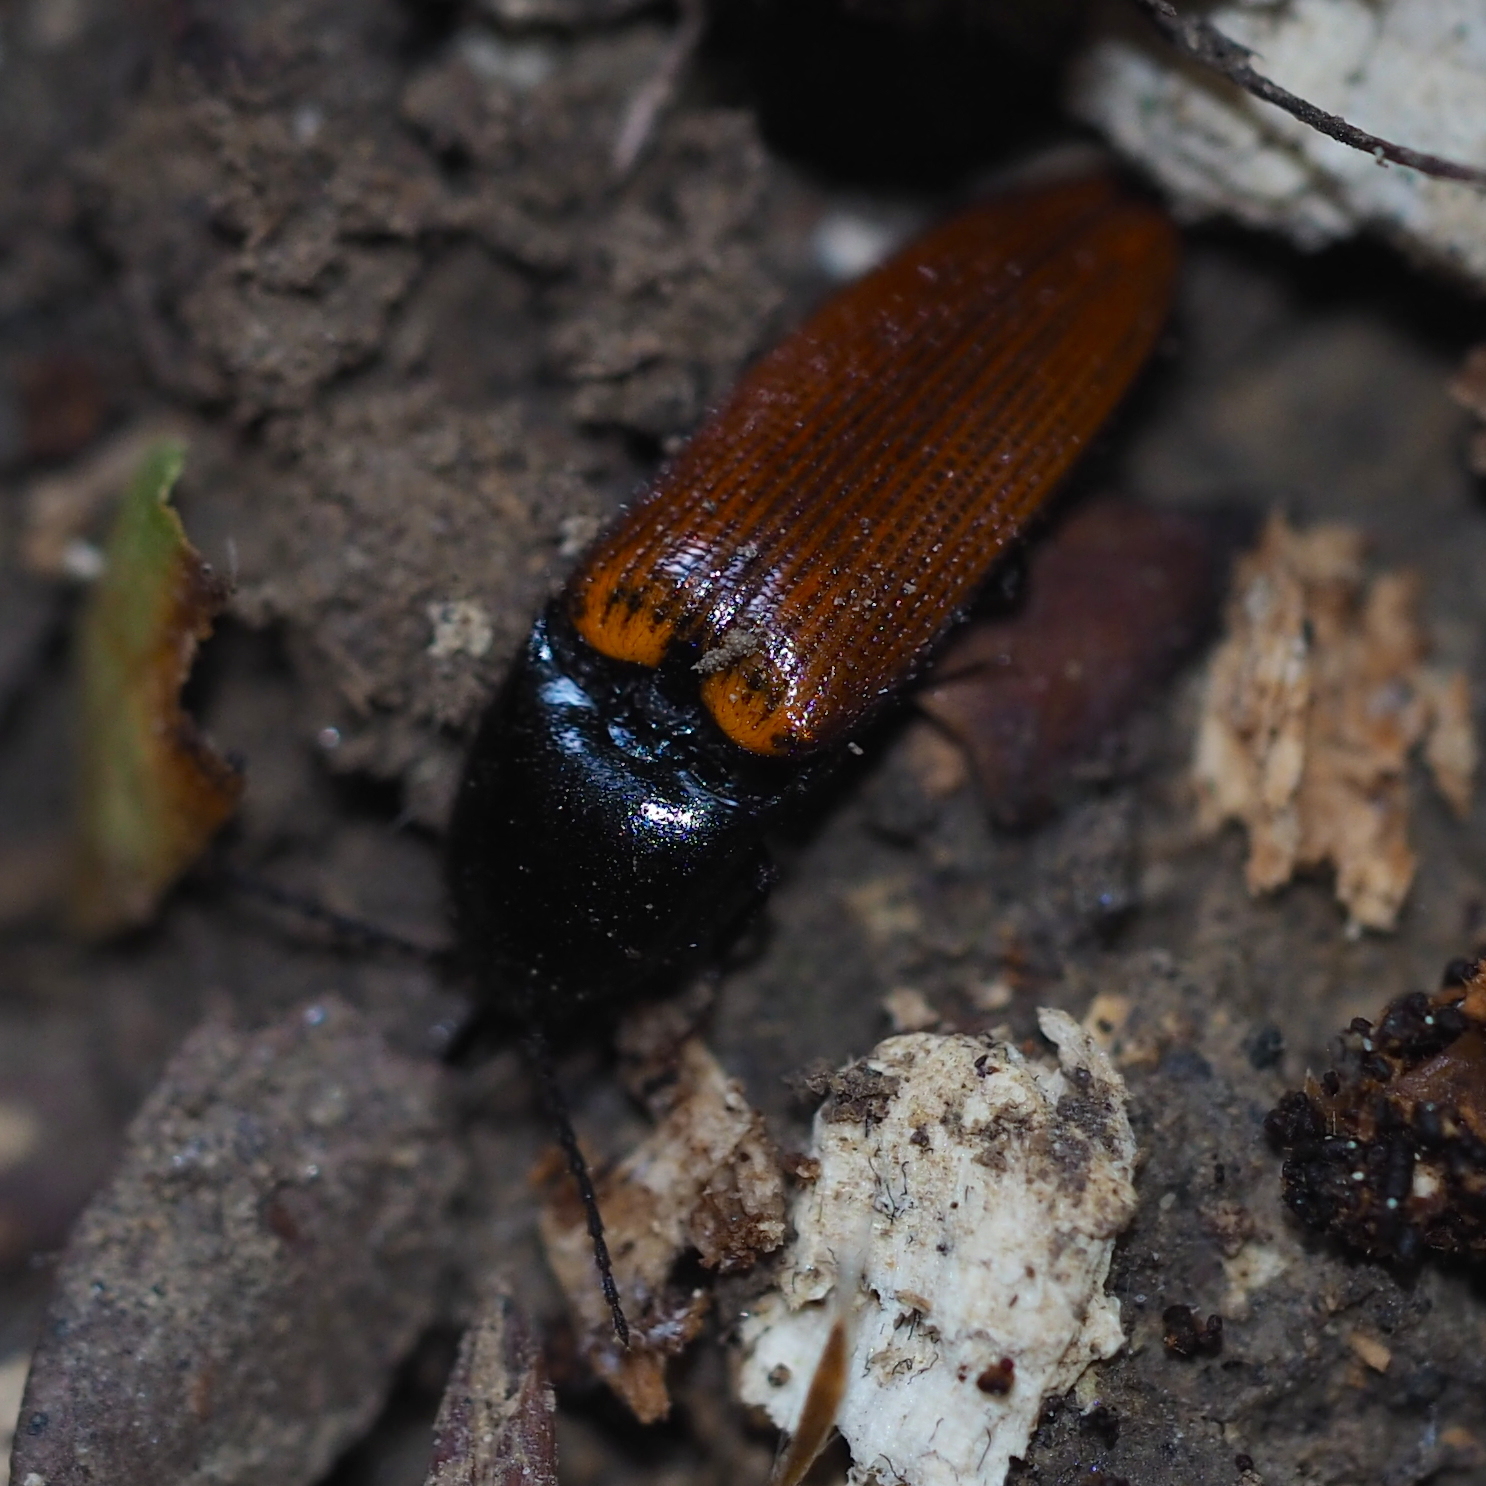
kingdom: Animalia
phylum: Arthropoda
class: Insecta
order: Coleoptera
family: Elateridae
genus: Ampedus
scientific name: Ampedus pomorum
